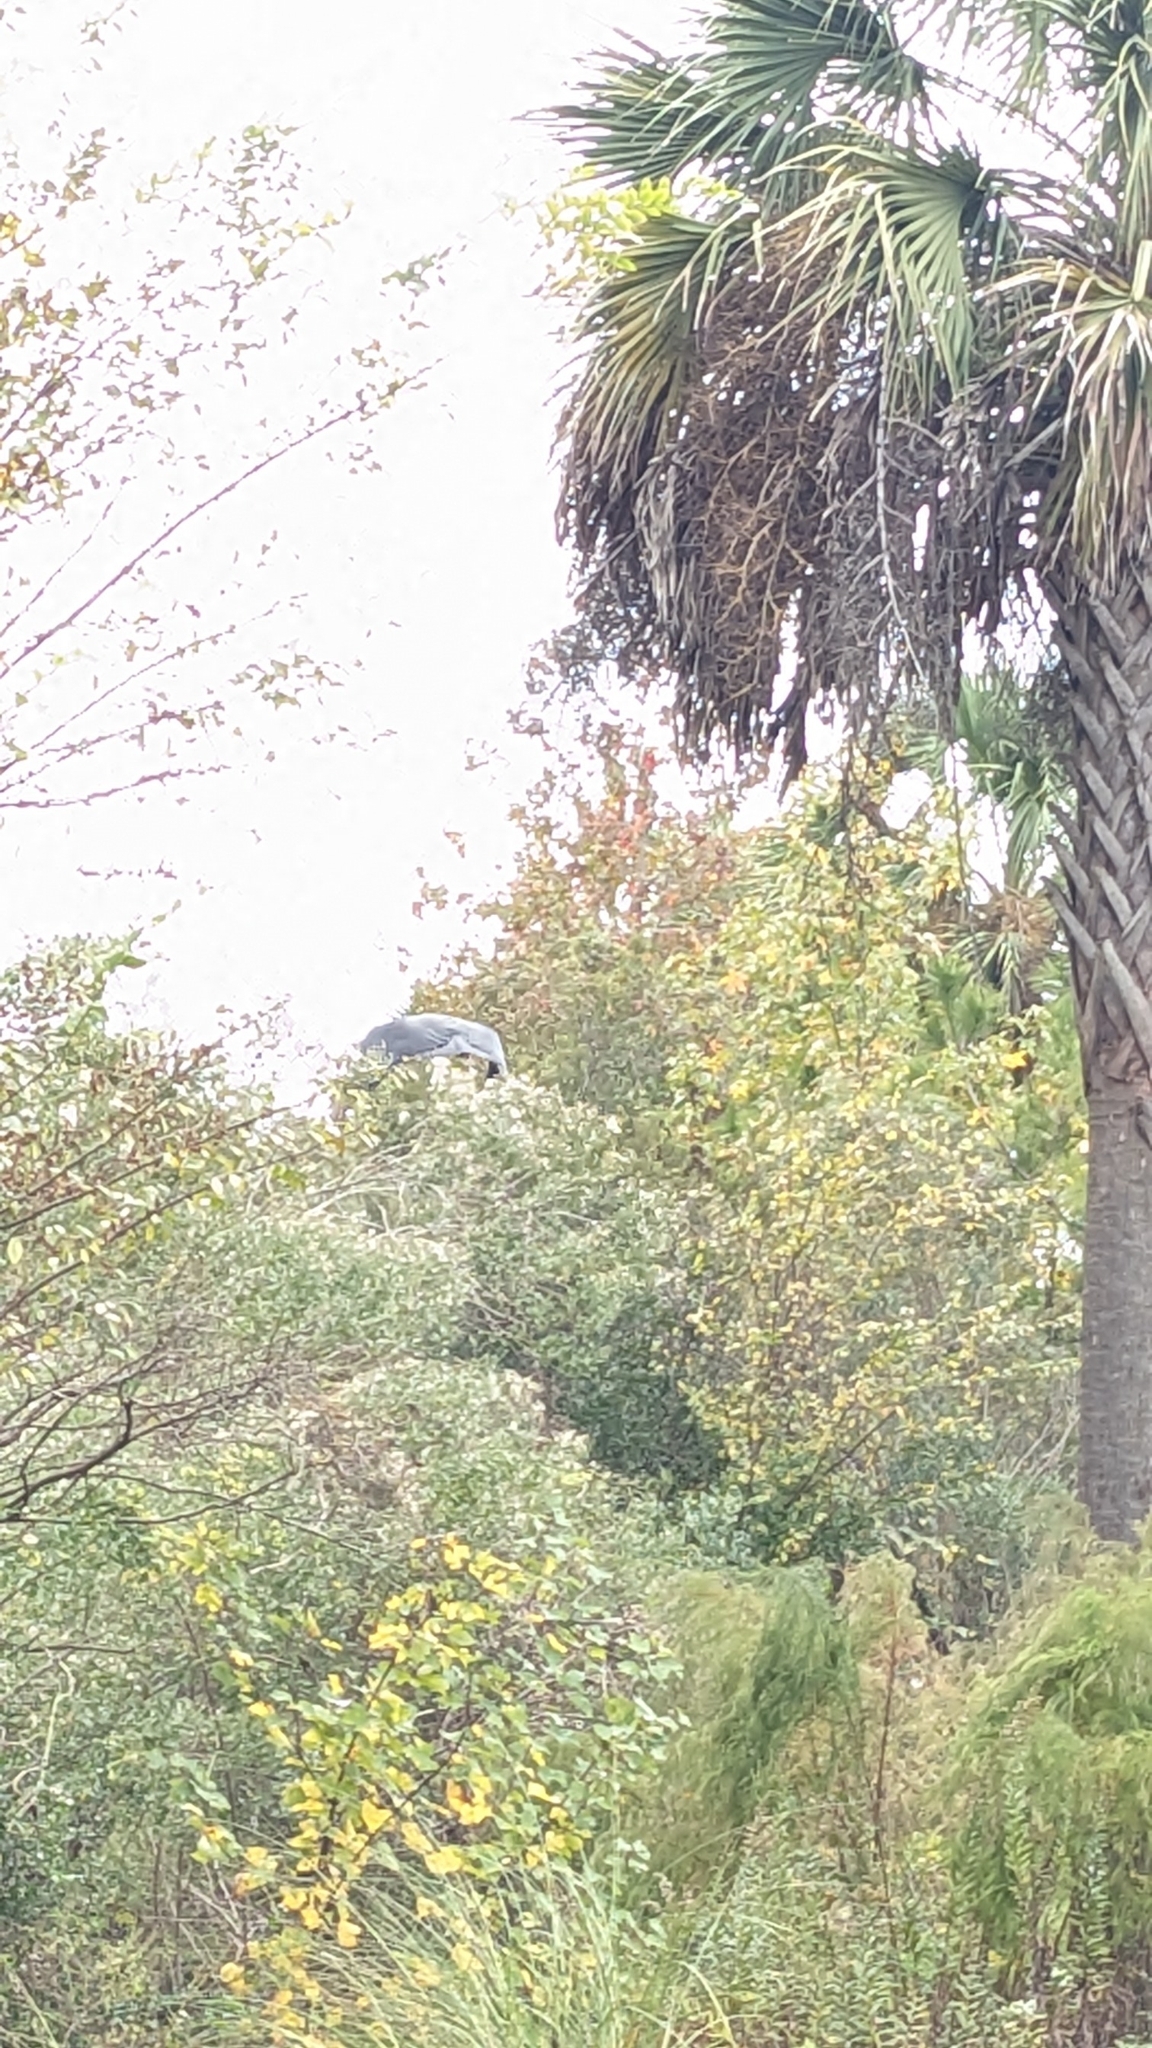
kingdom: Animalia
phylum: Chordata
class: Aves
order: Accipitriformes
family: Cathartidae
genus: Coragyps
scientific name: Coragyps atratus
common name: Black vulture
